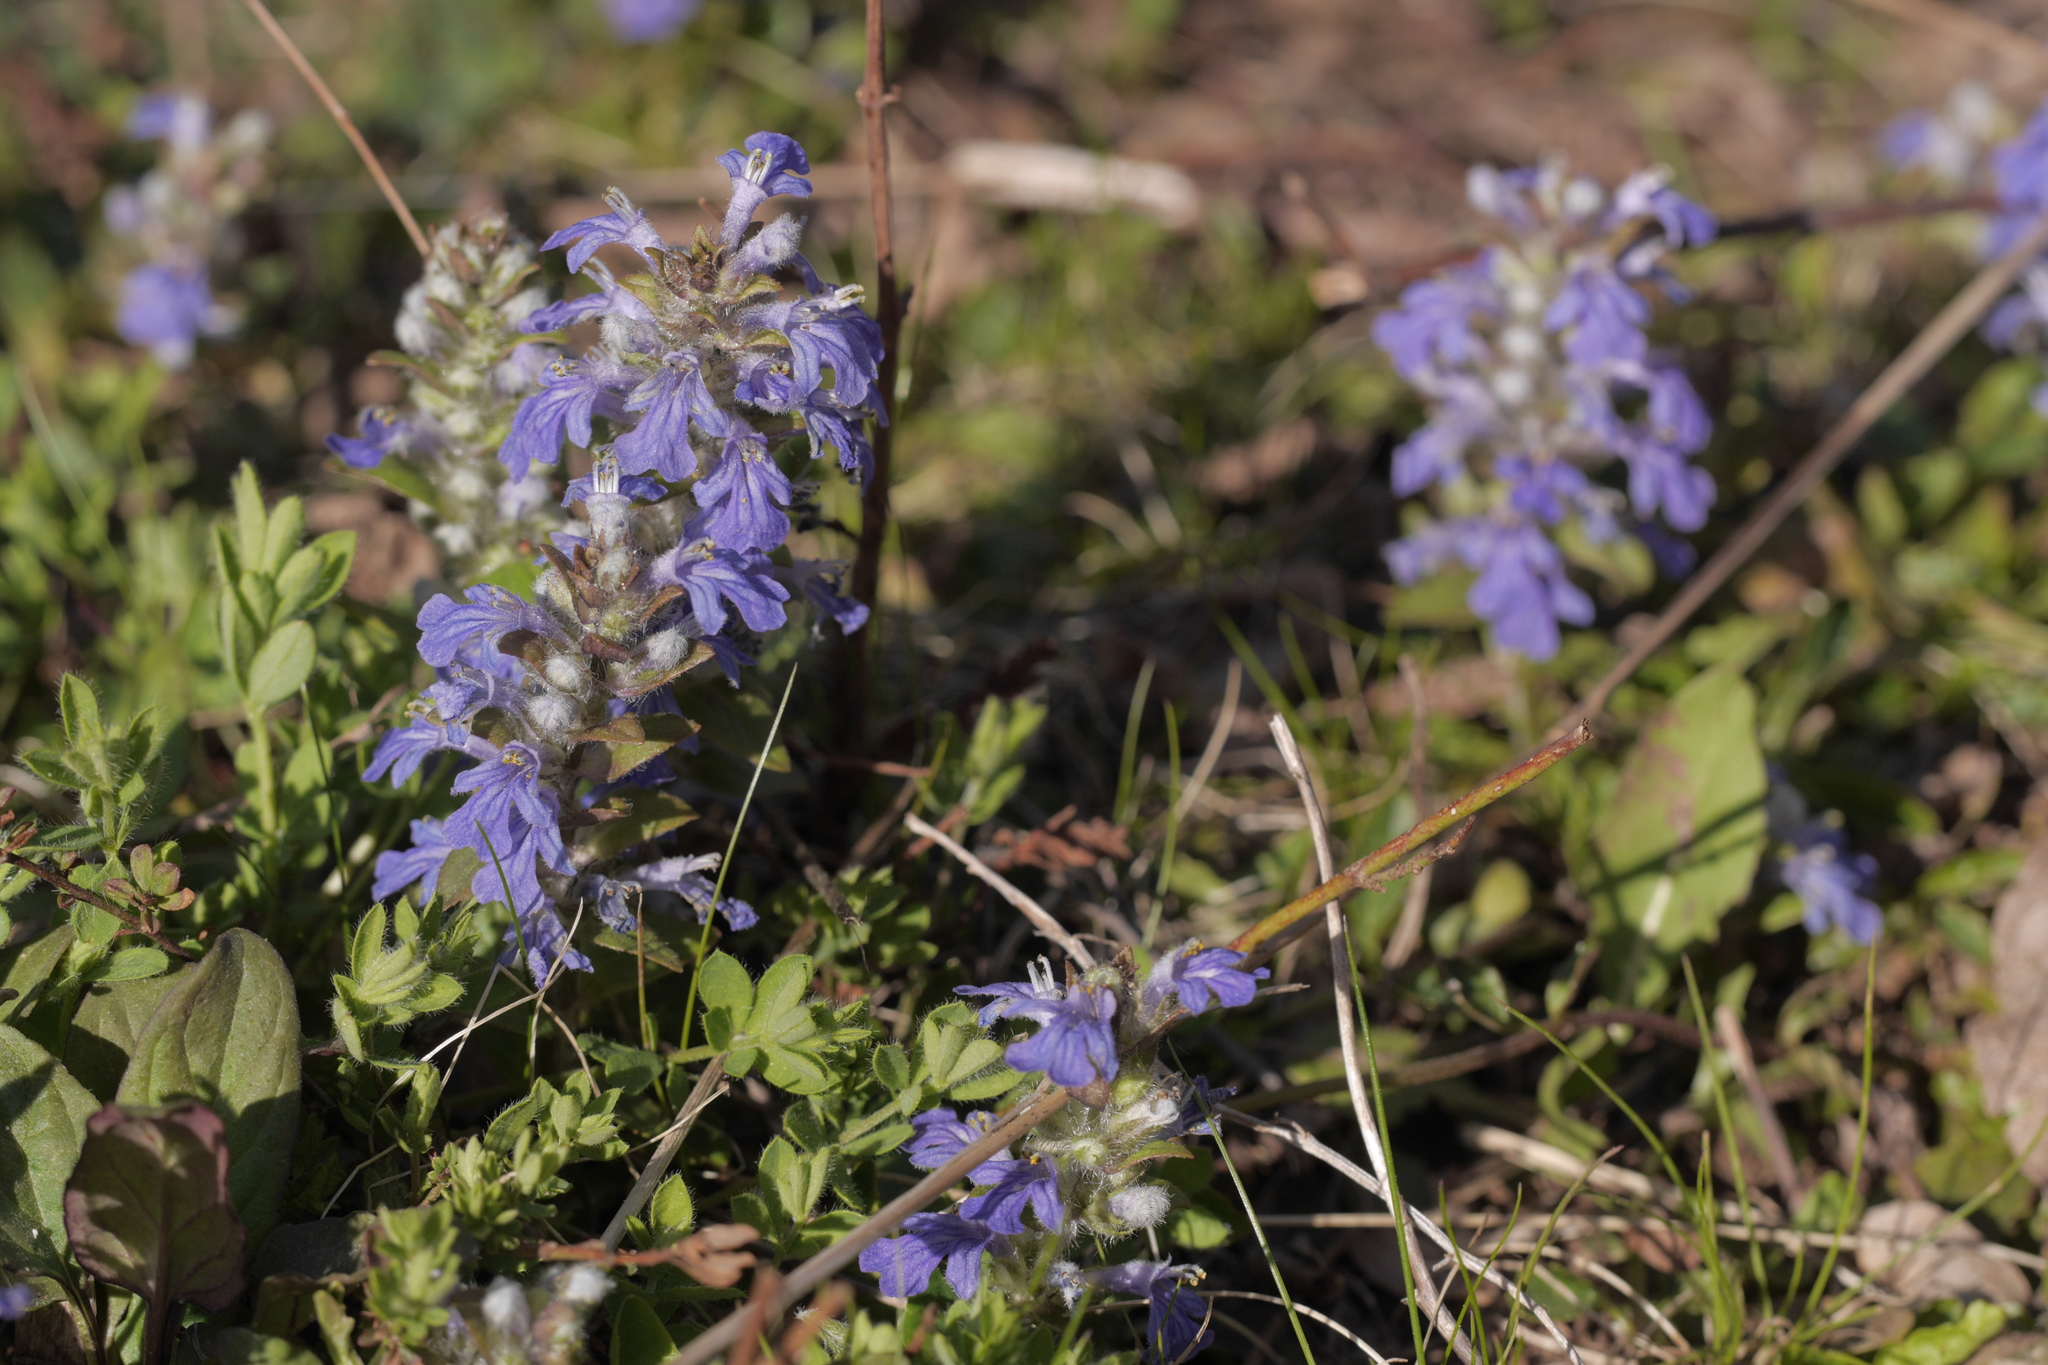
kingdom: Plantae
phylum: Tracheophyta
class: Magnoliopsida
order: Lamiales
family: Lamiaceae
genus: Ajuga
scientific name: Ajuga reptans
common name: Bugle
